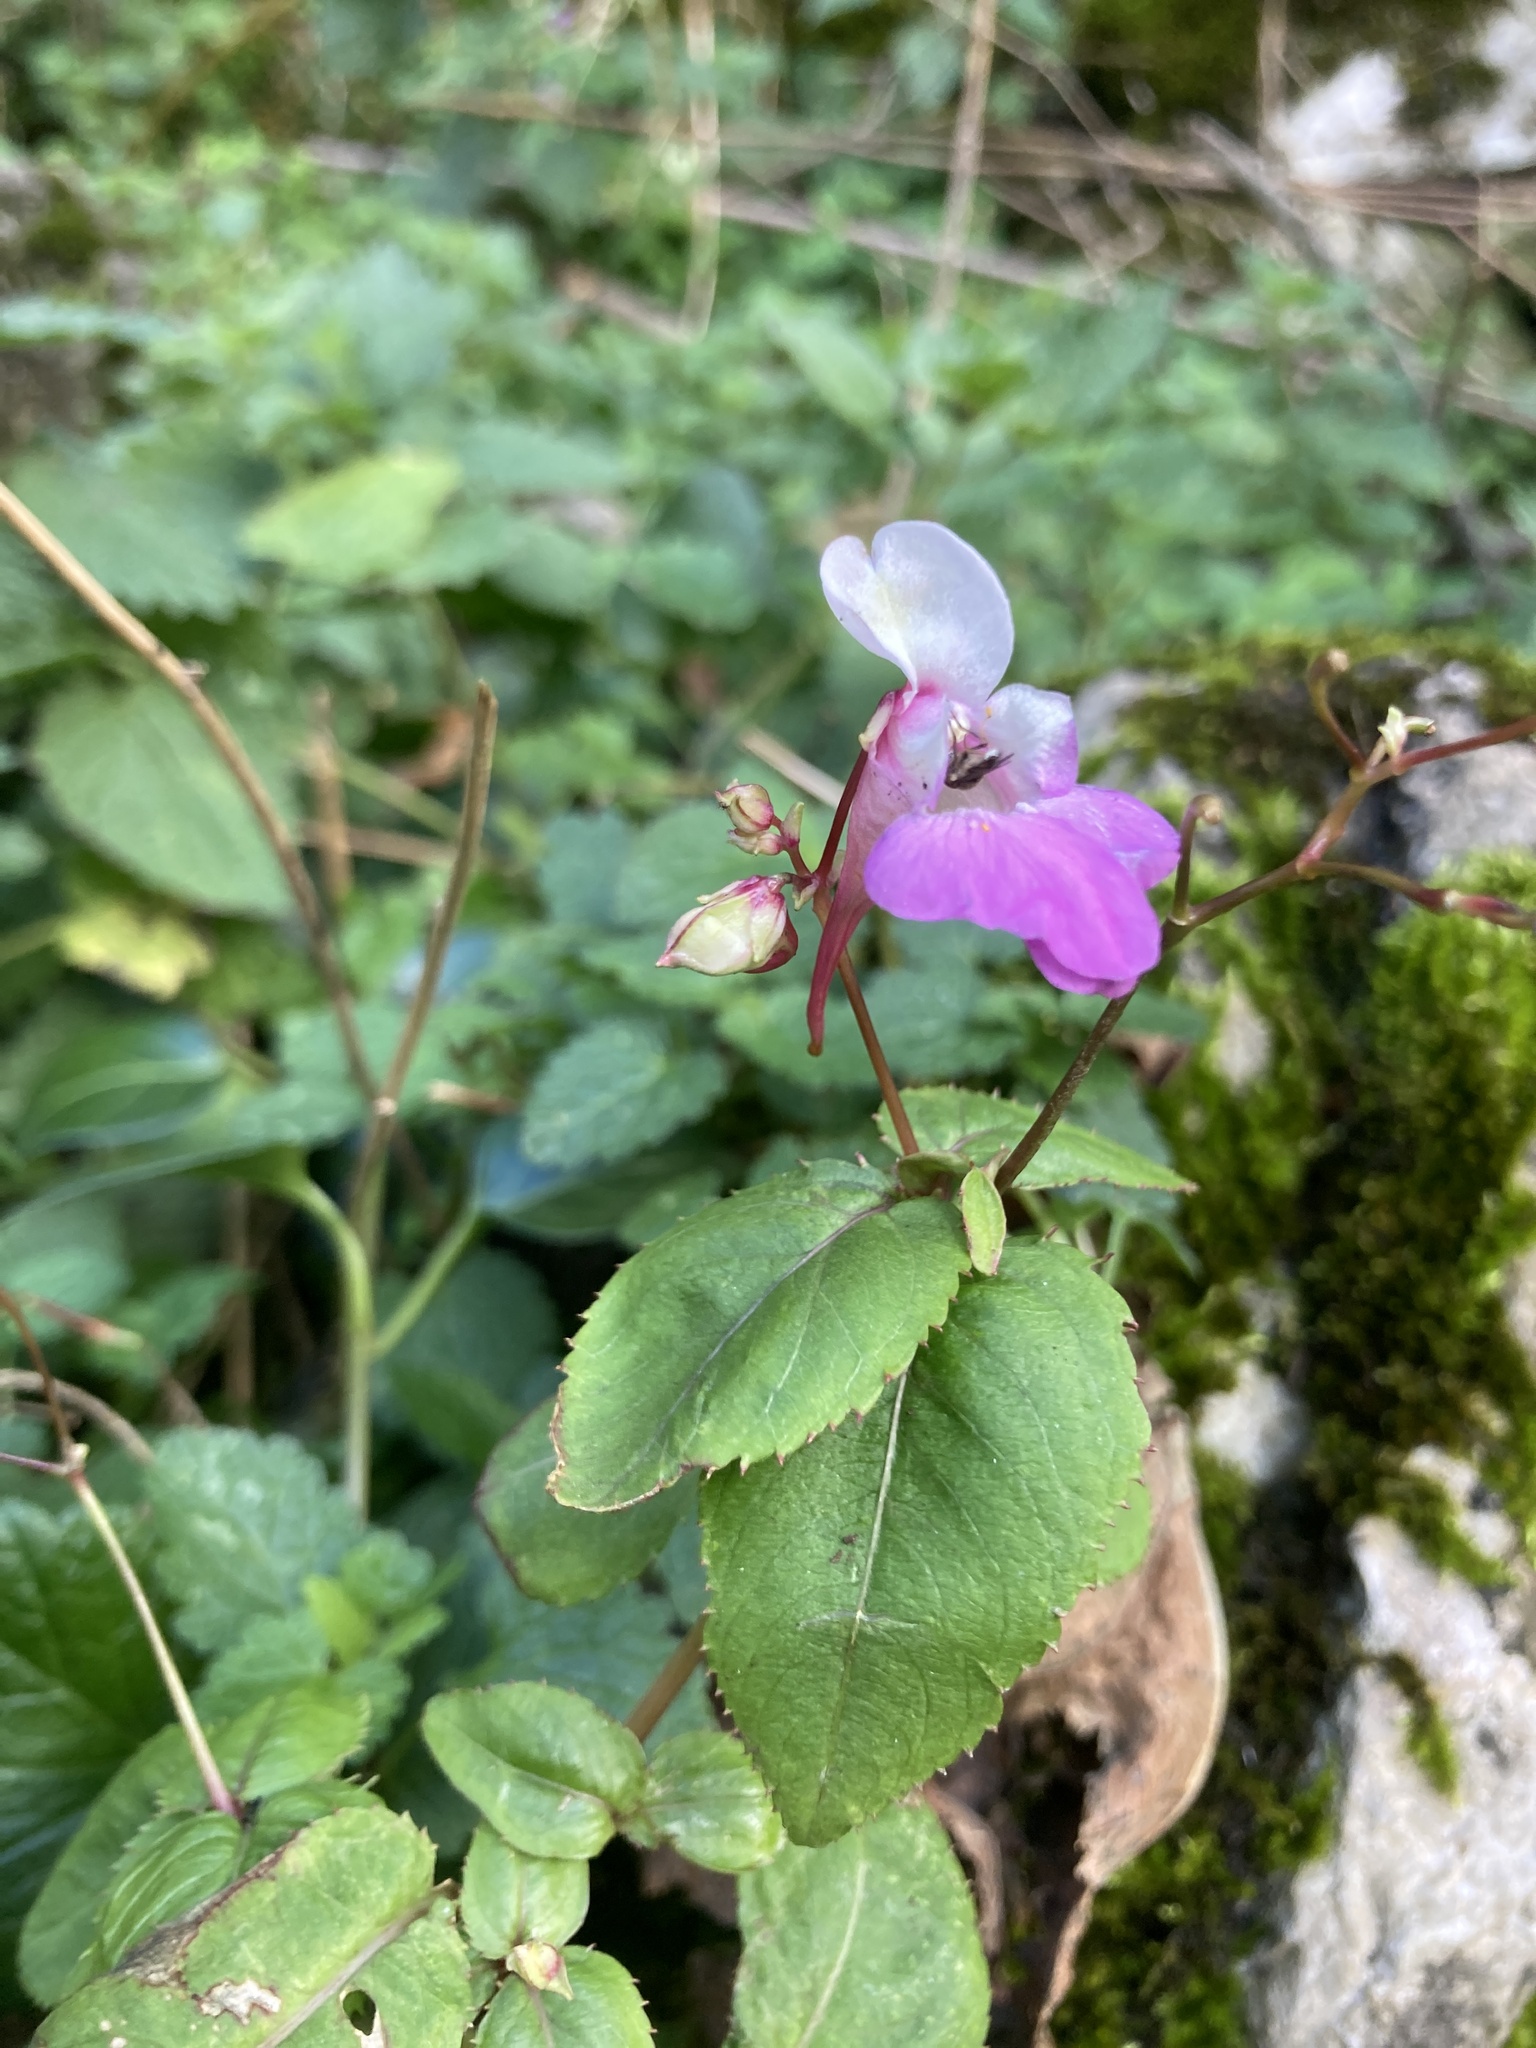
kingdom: Plantae
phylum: Tracheophyta
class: Magnoliopsida
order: Ericales
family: Balsaminaceae
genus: Impatiens
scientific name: Impatiens balfourii
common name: Balfour's touch-me-not
